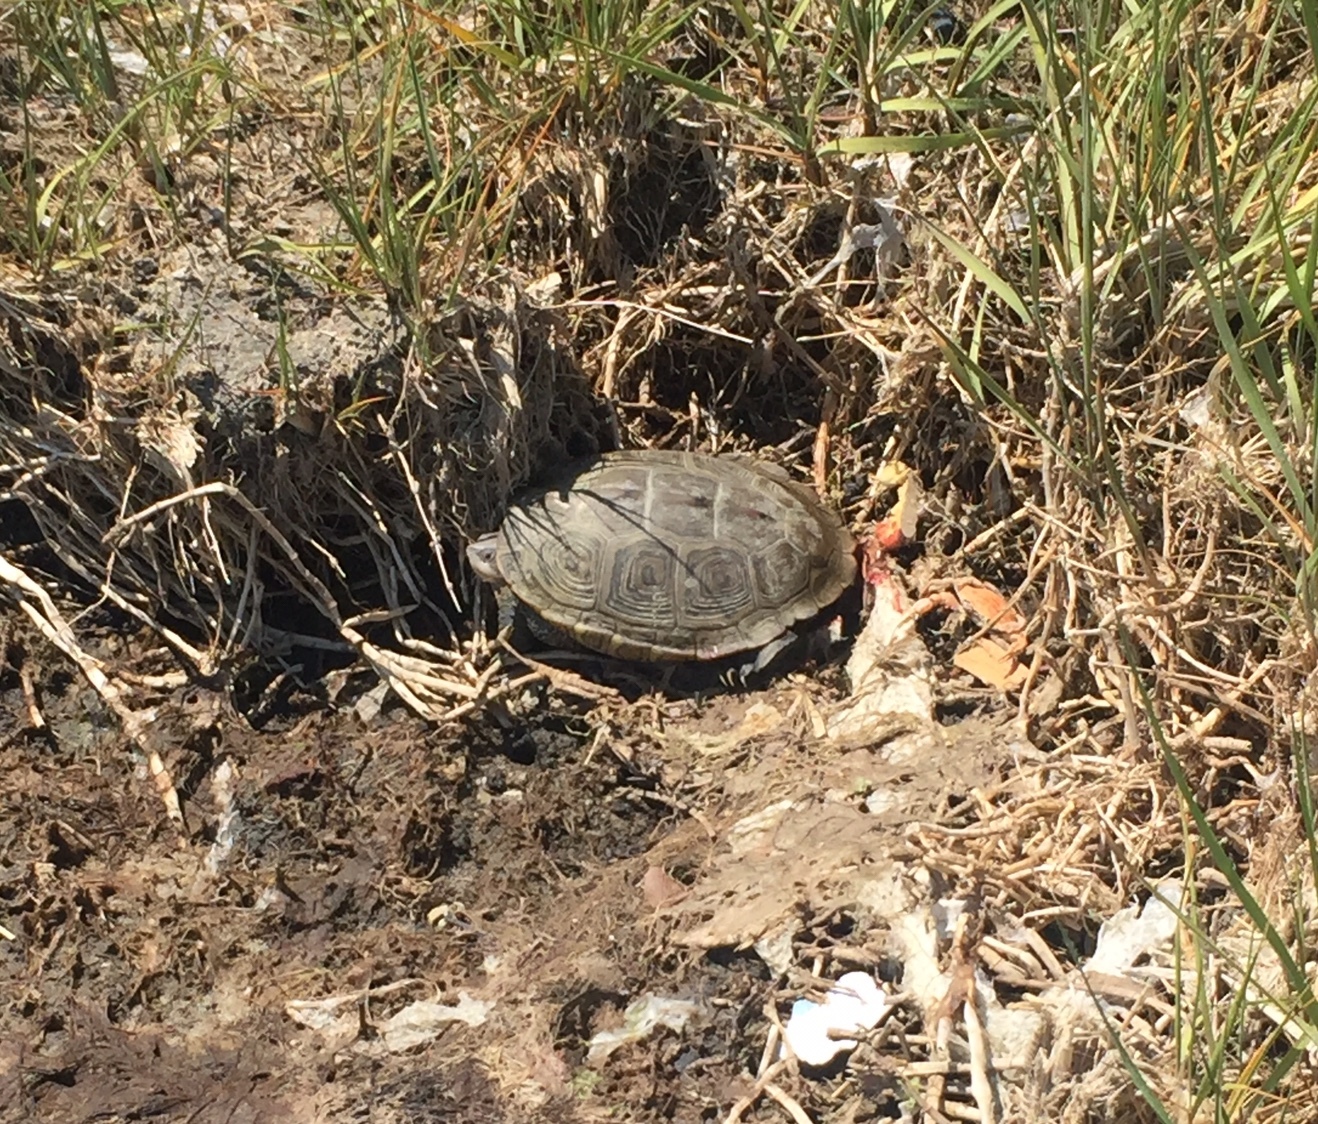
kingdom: Animalia
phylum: Chordata
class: Testudines
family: Emydidae
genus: Malaclemys
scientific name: Malaclemys terrapin
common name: Diamondback terrapin
